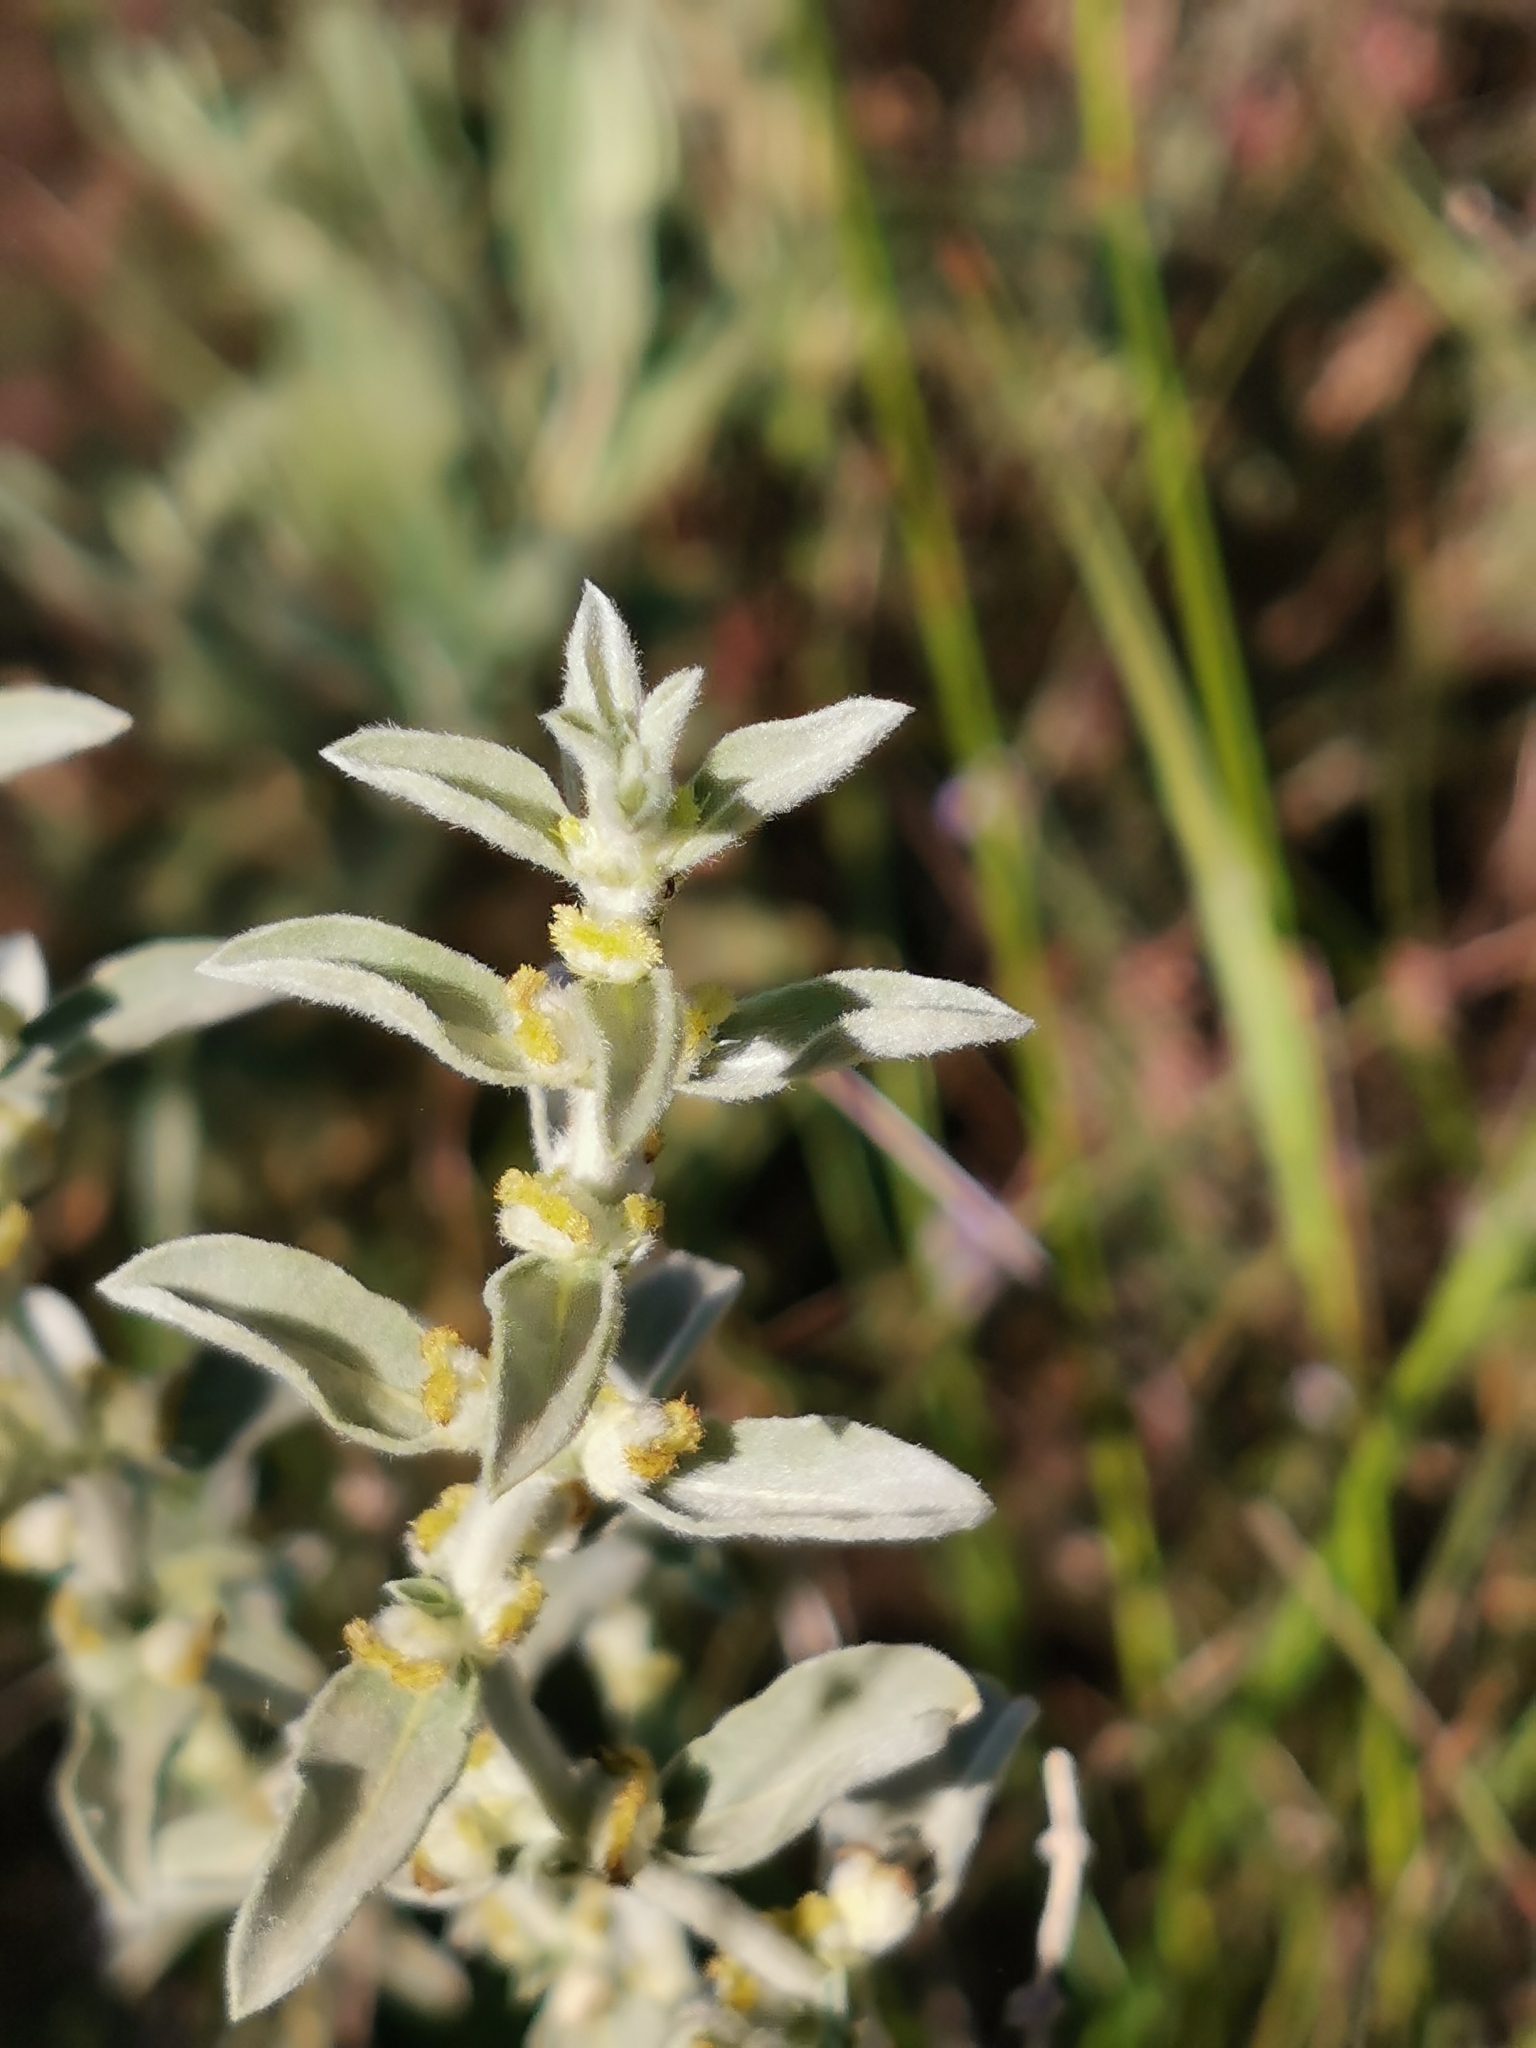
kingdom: Plantae
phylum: Tracheophyta
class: Magnoliopsida
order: Malpighiales
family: Euphorbiaceae
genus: Mercurialis
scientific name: Mercurialis tomentosa
